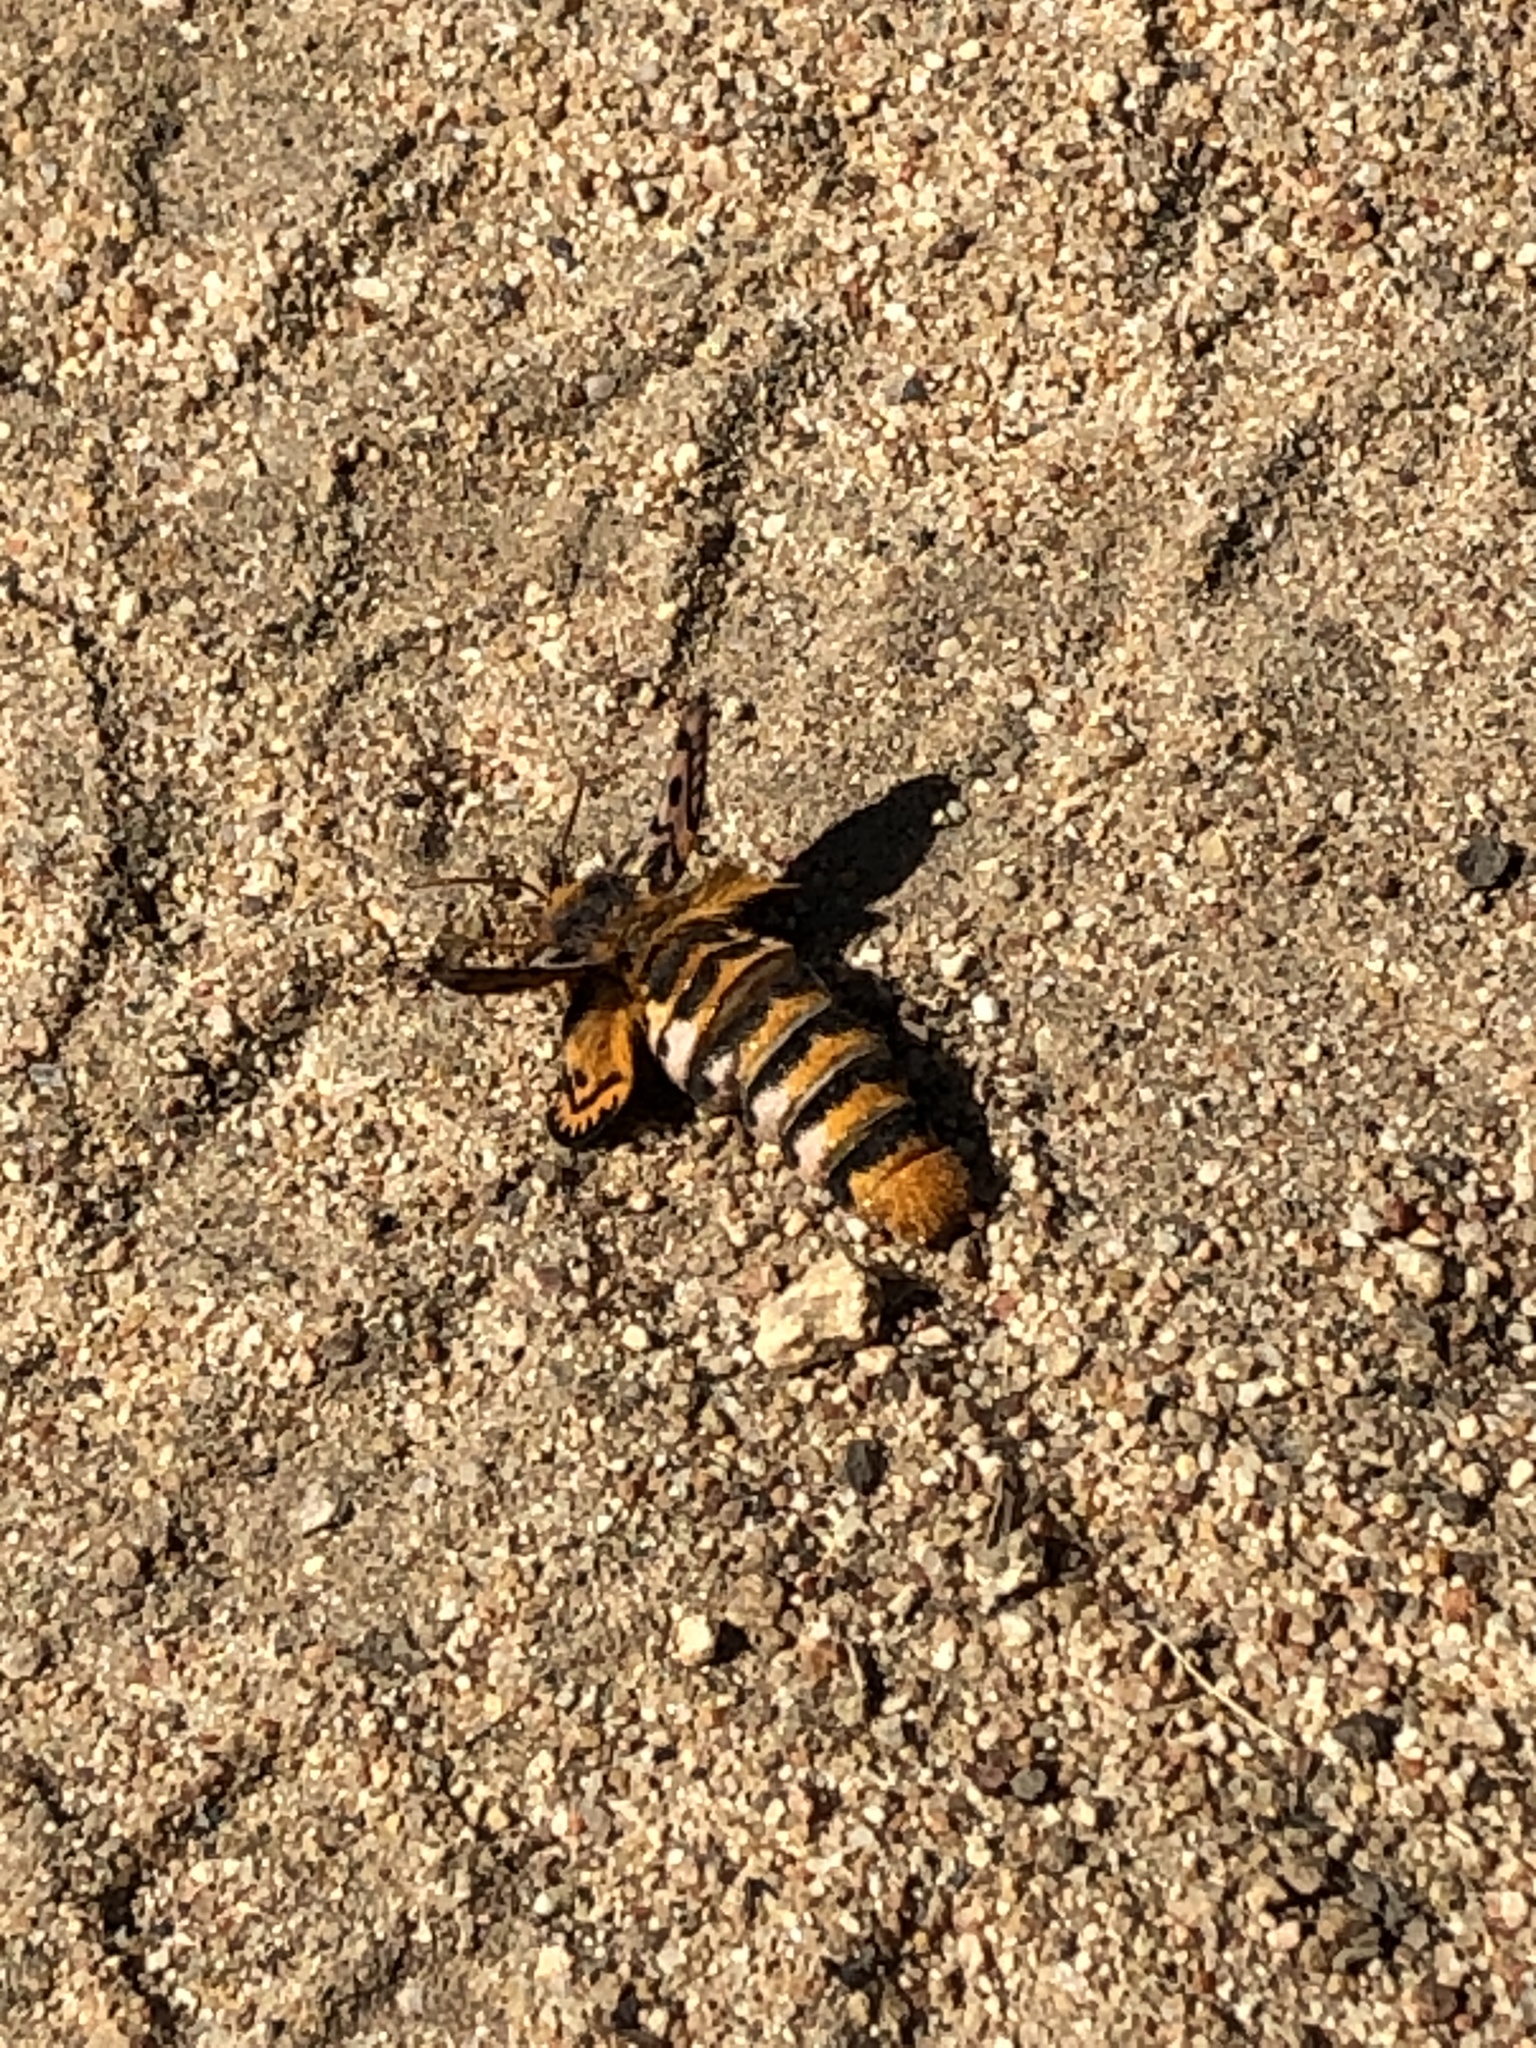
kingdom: Animalia
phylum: Arthropoda
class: Insecta
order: Lepidoptera
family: Saturniidae
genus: Hemileuca
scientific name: Hemileuca eglanterina
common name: Western sheepmoth
